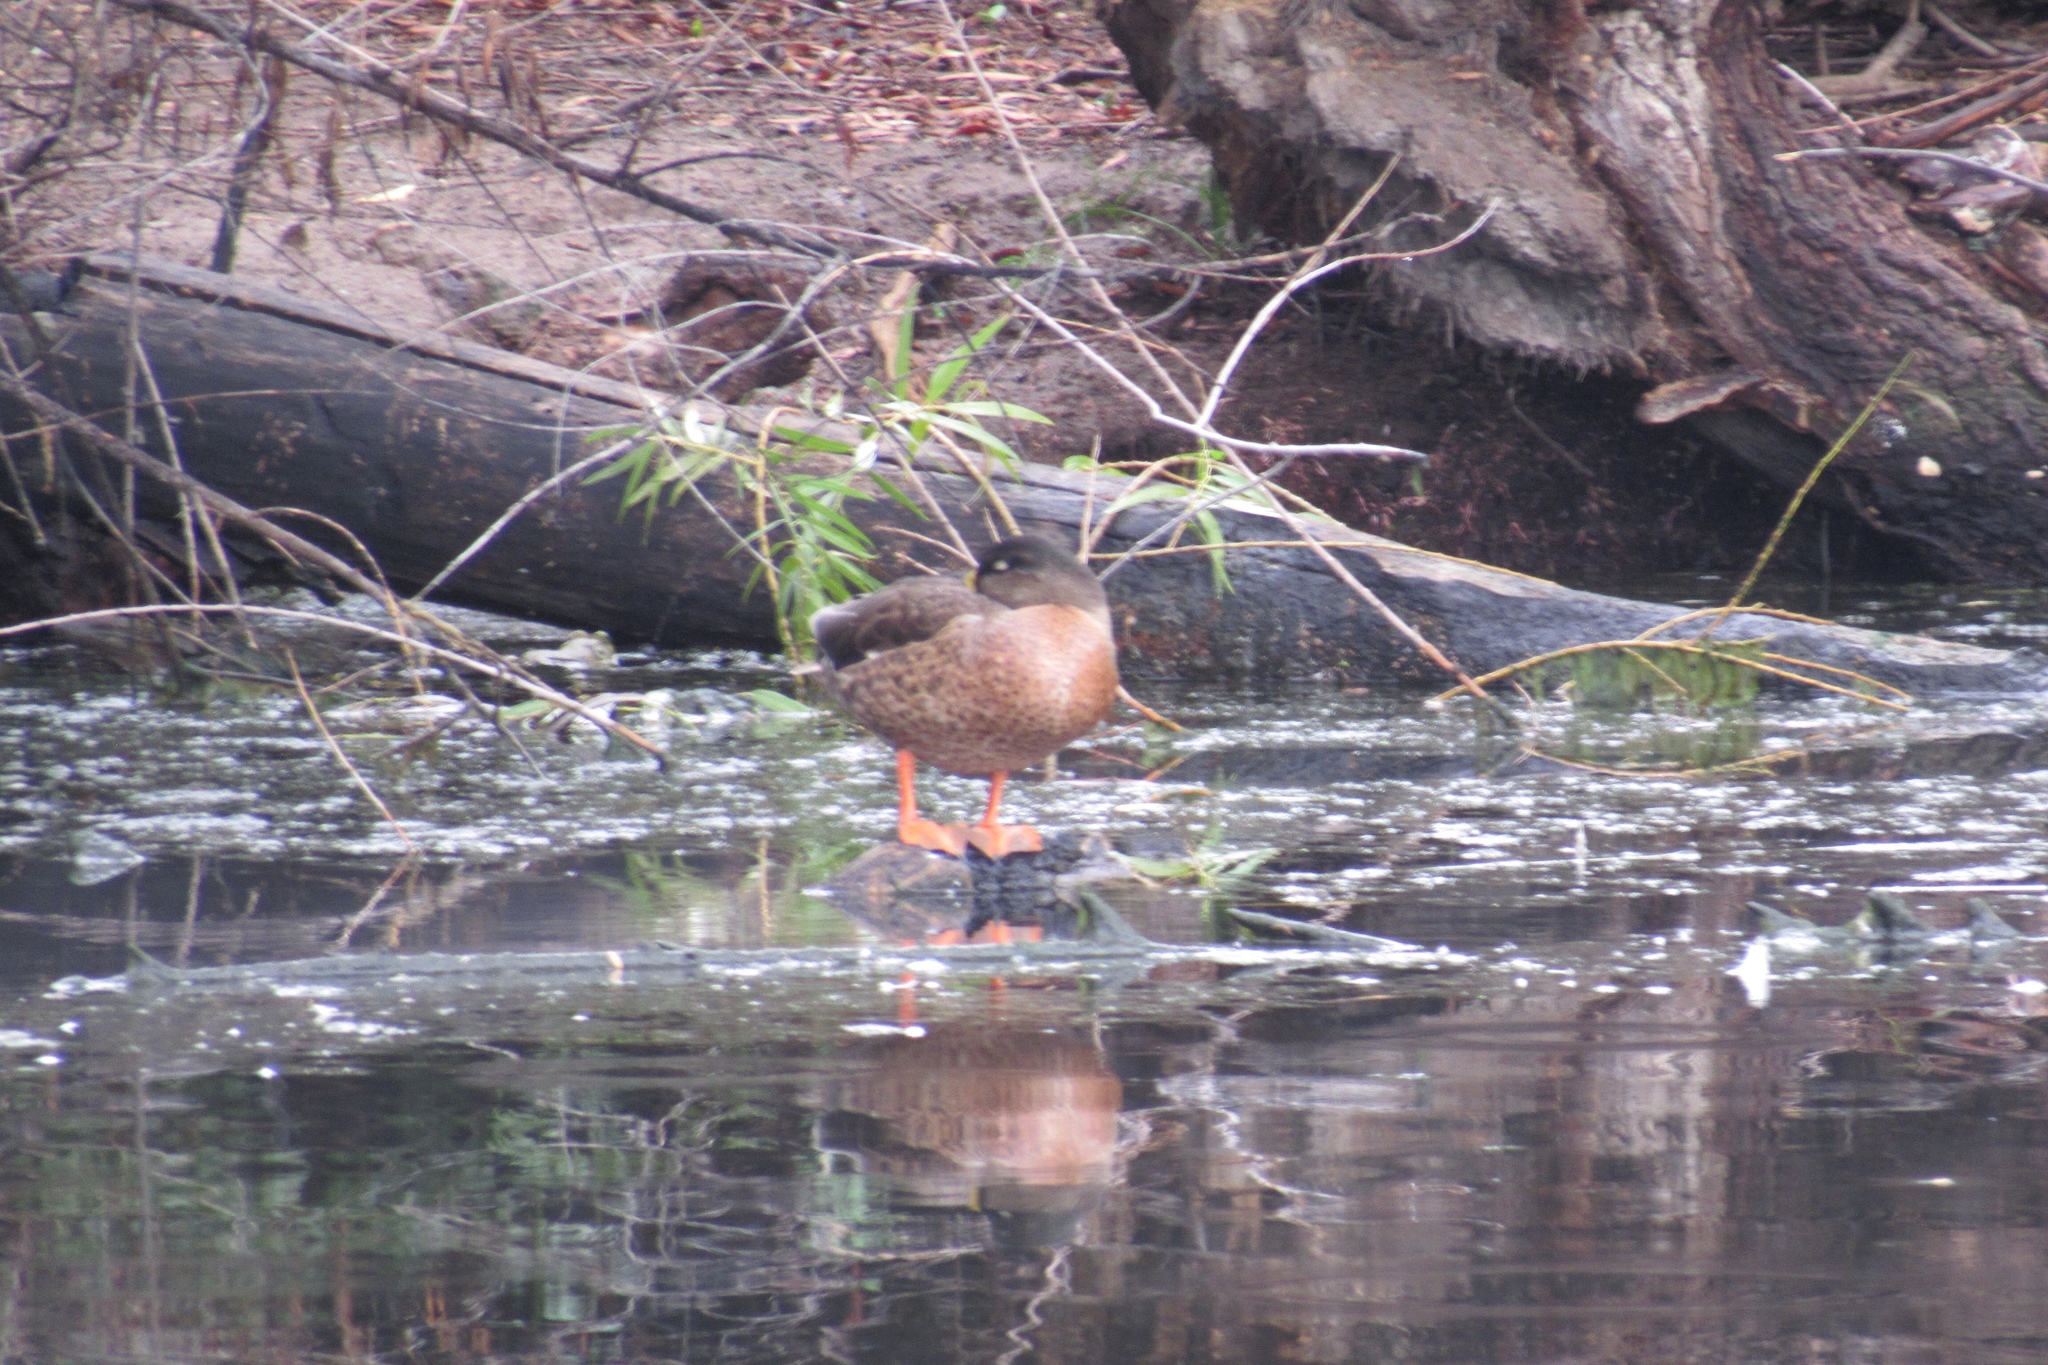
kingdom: Animalia
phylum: Chordata
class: Aves
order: Anseriformes
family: Anatidae
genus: Anas
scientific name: Anas platyrhynchos
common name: Mallard
